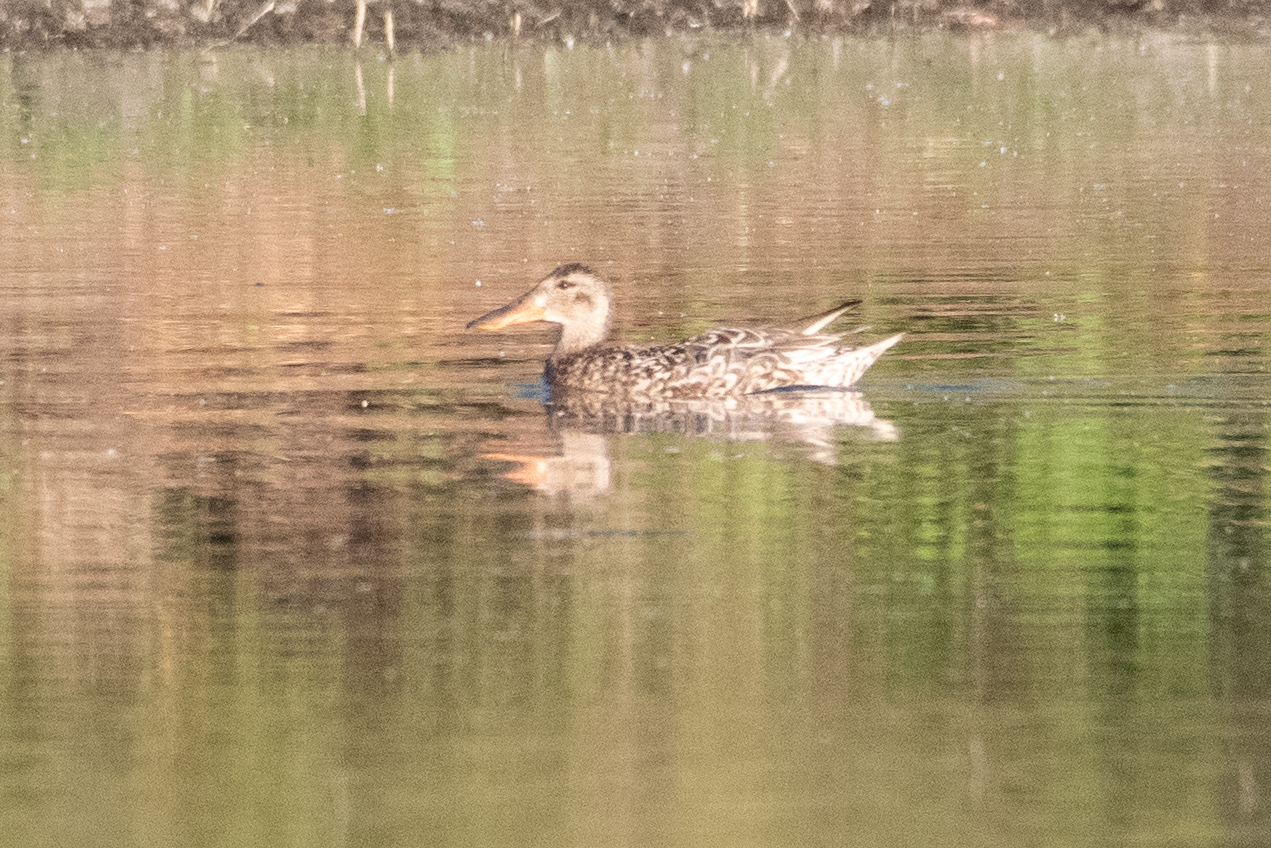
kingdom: Animalia
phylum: Chordata
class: Aves
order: Anseriformes
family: Anatidae
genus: Spatula
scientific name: Spatula clypeata
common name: Northern shoveler
